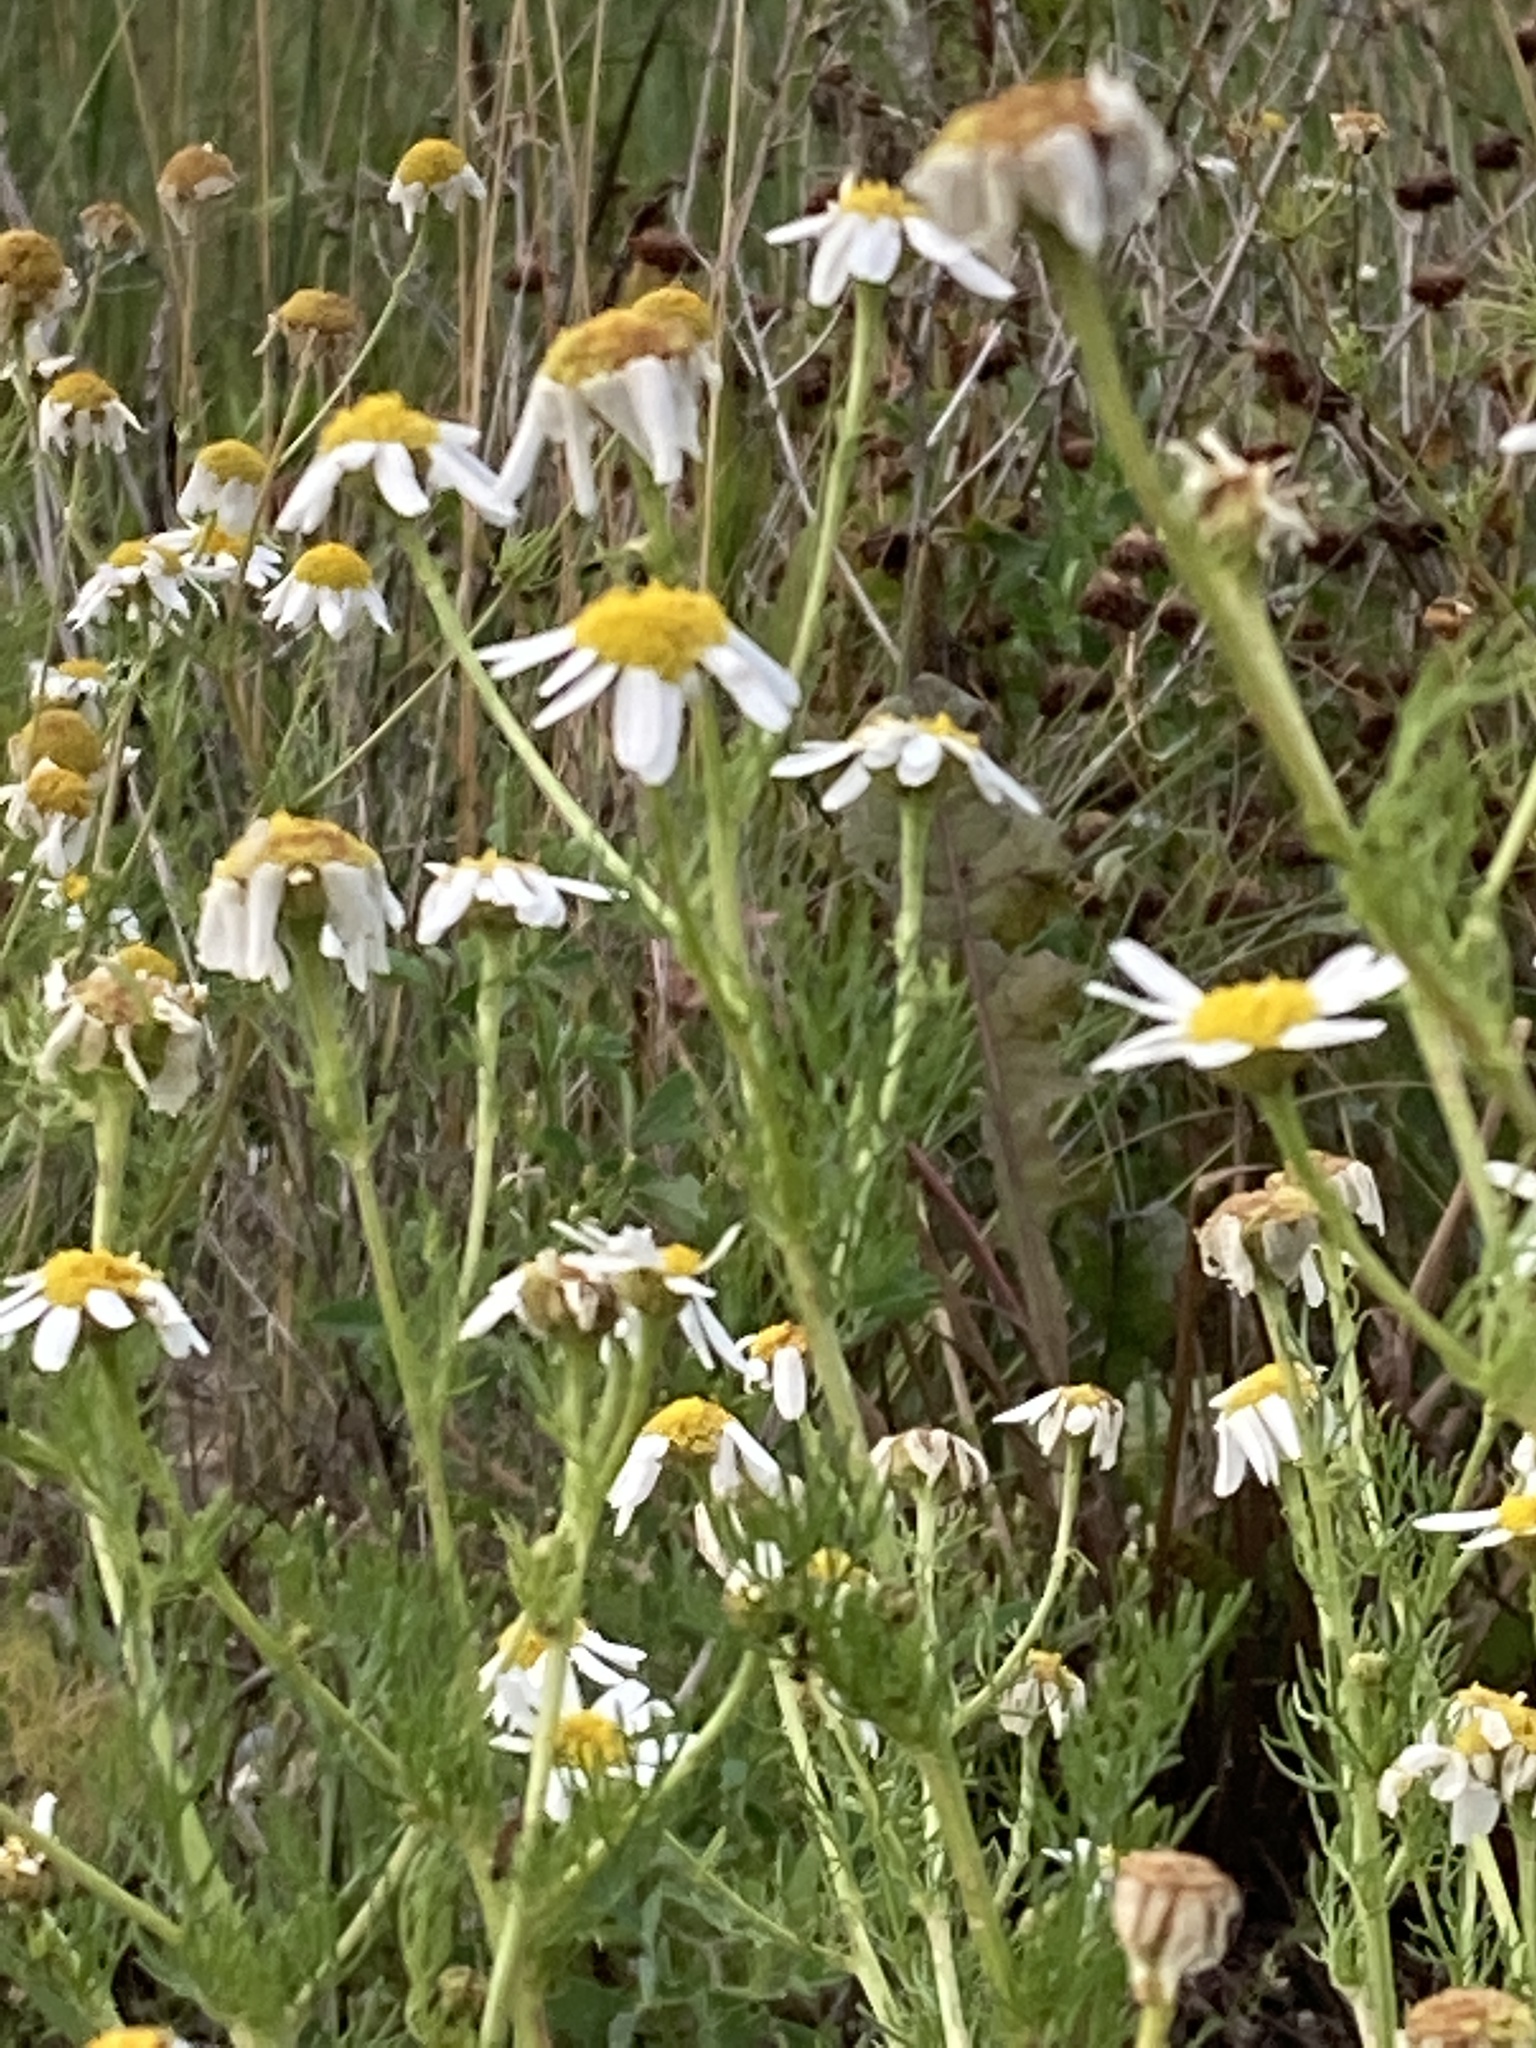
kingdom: Plantae
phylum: Tracheophyta
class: Magnoliopsida
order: Asterales
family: Asteraceae
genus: Tripleurospermum
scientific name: Tripleurospermum inodorum
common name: Scentless mayweed
